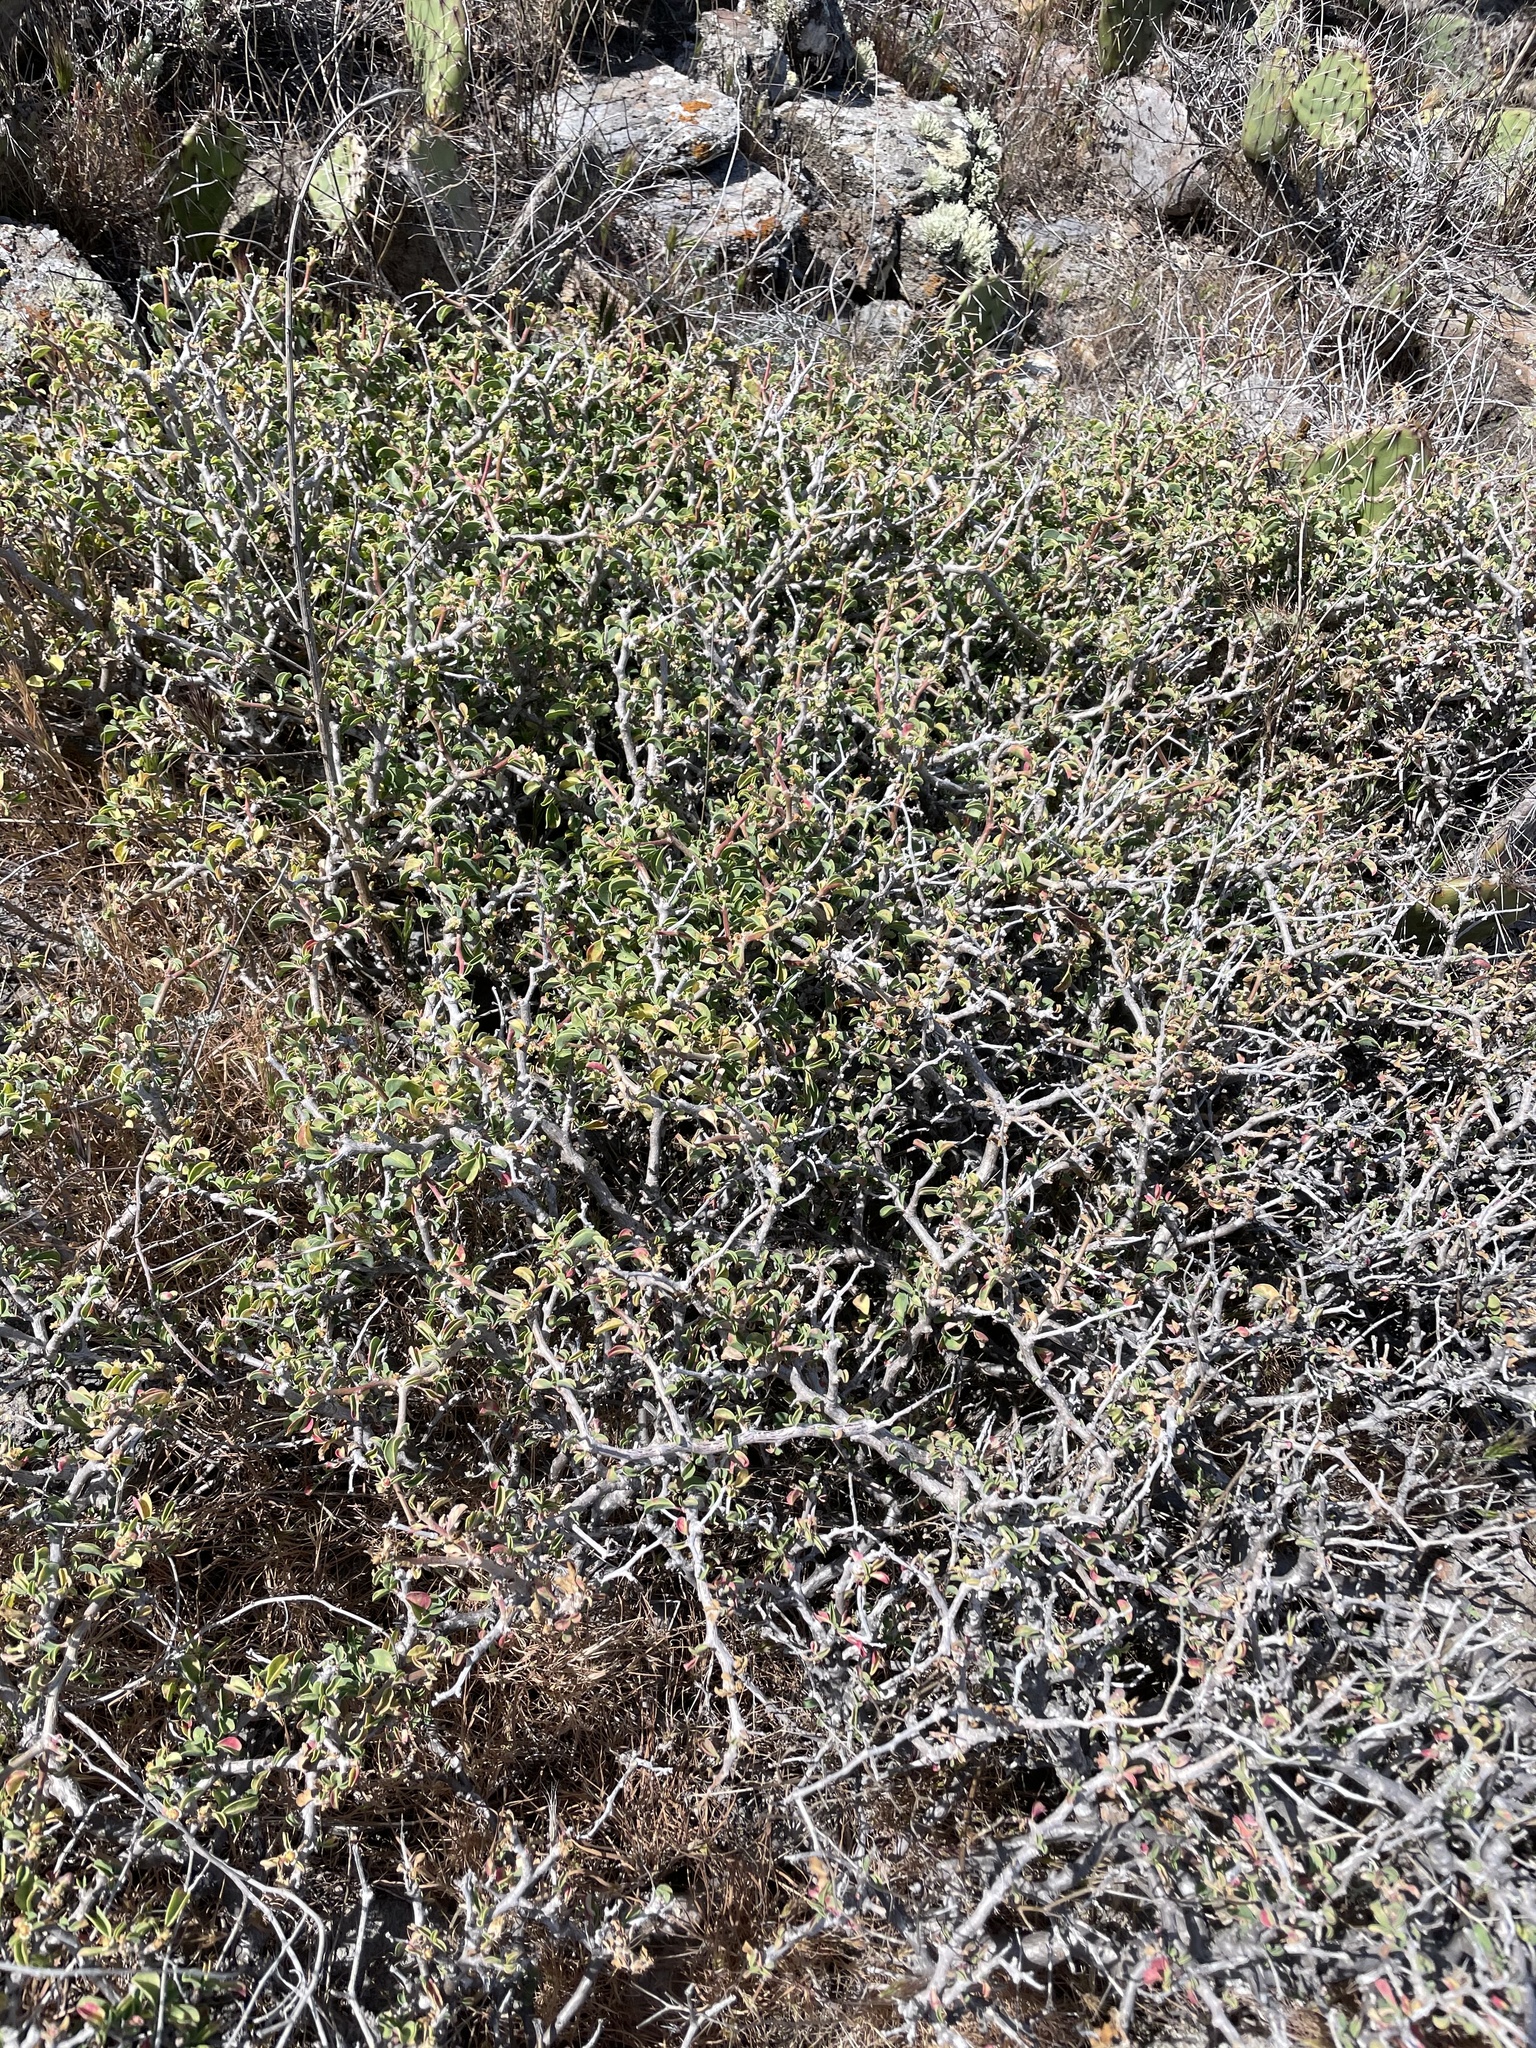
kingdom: Plantae
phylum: Tracheophyta
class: Magnoliopsida
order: Malpighiales
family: Euphorbiaceae
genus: Euphorbia
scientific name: Euphorbia misera
